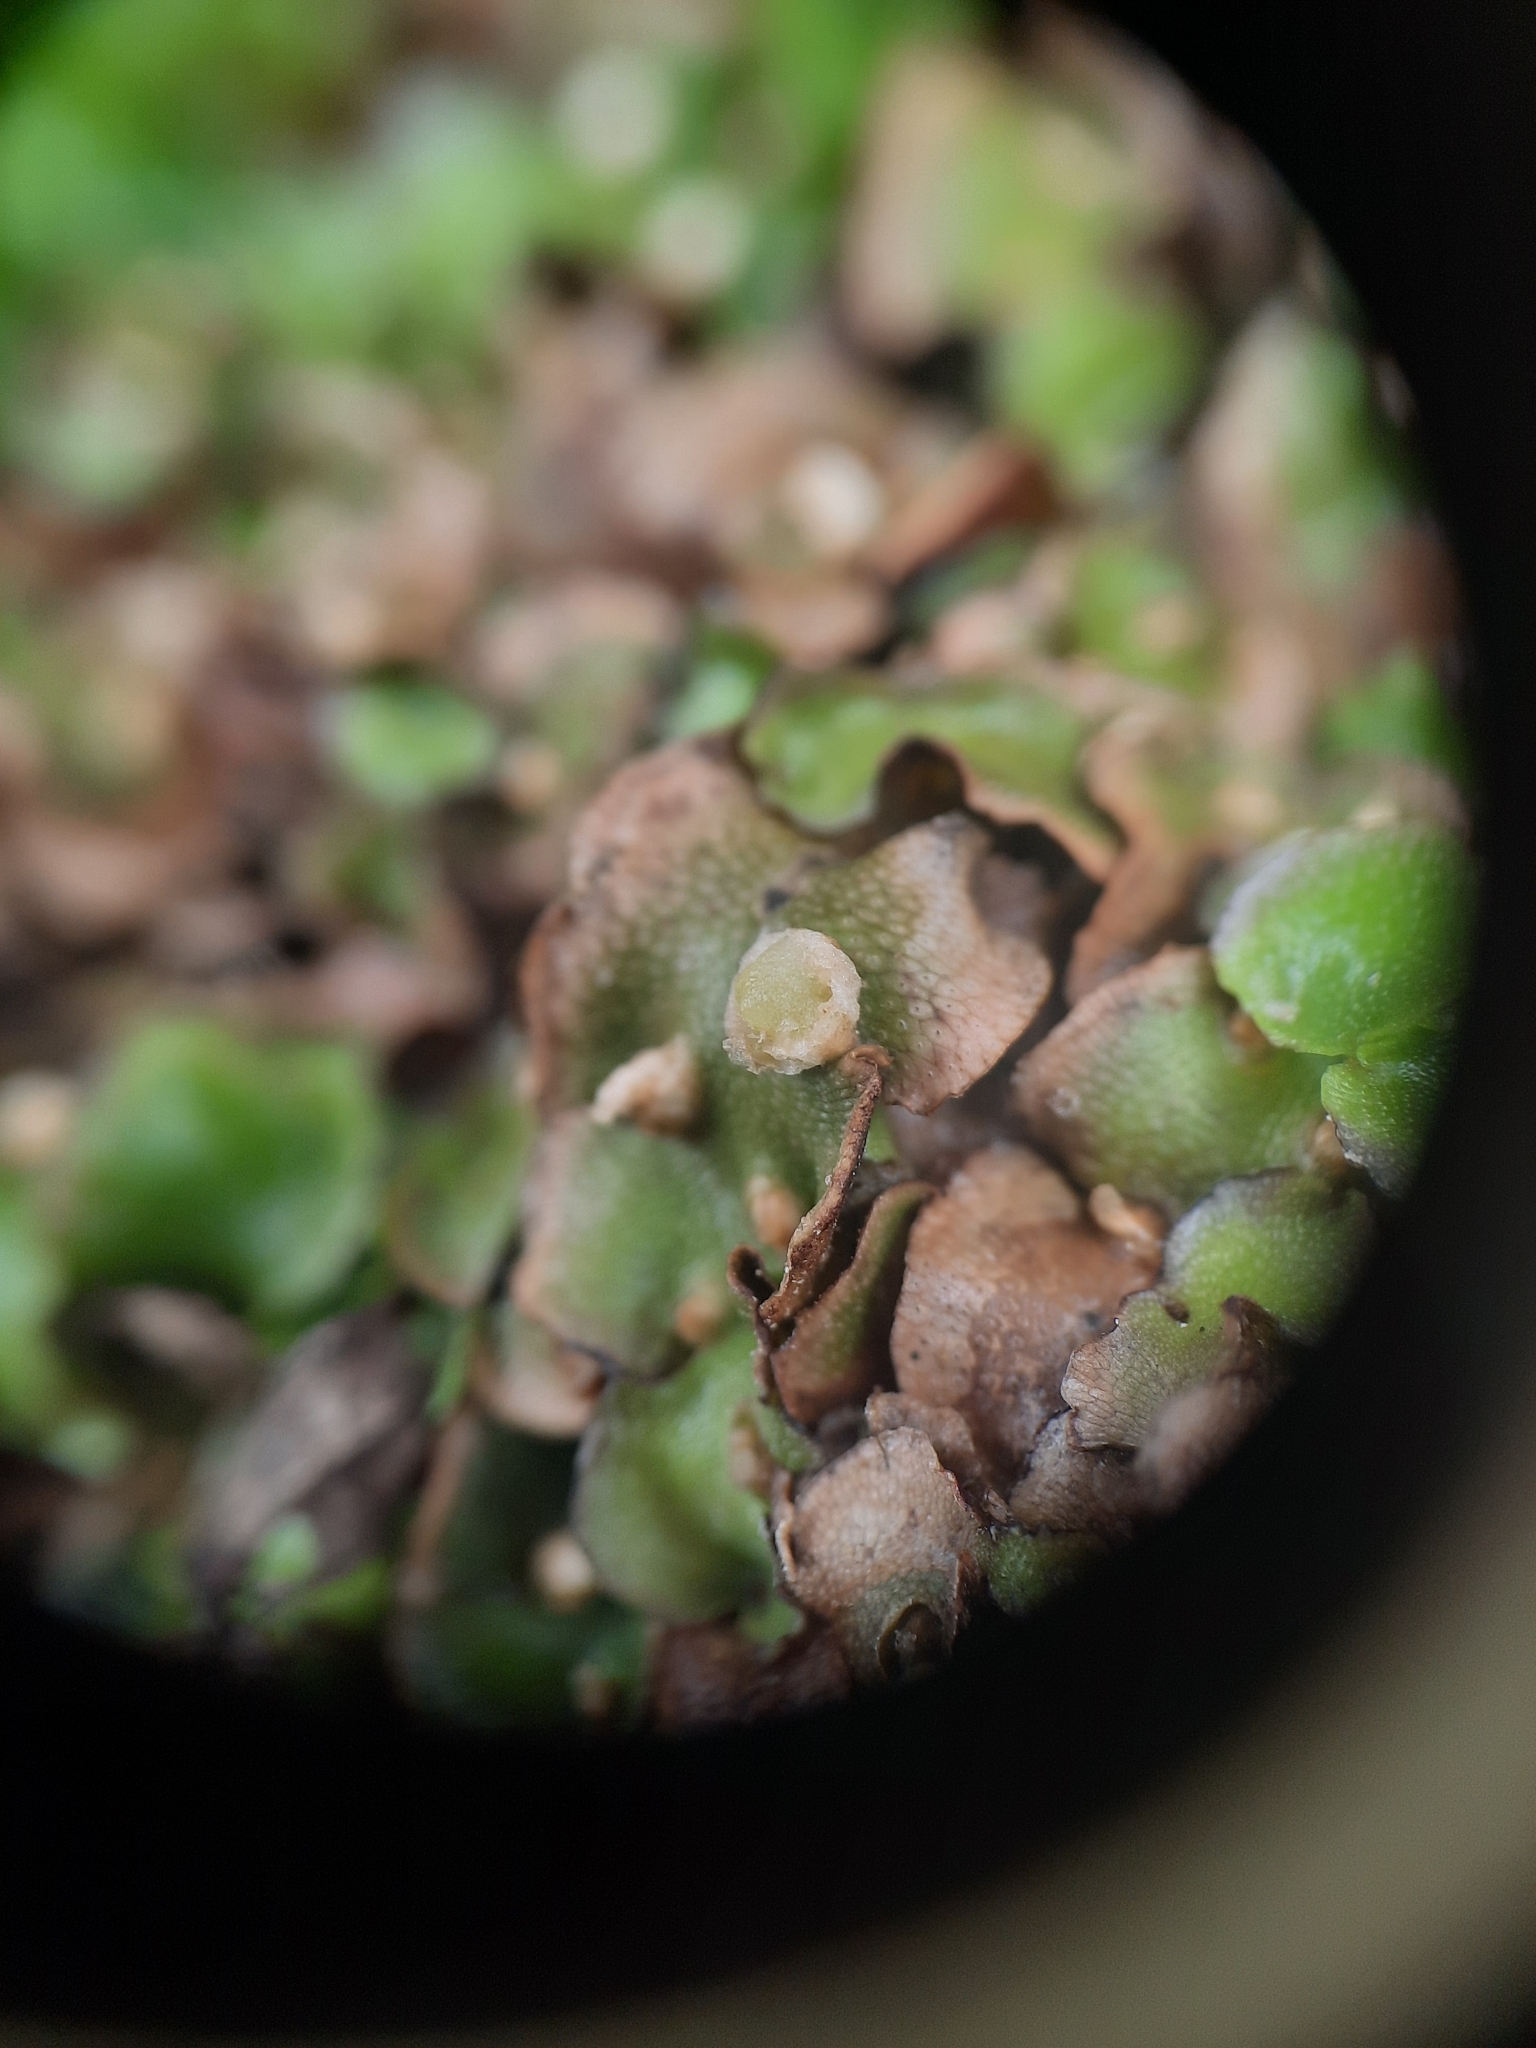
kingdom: Plantae
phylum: Marchantiophyta
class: Marchantiopsida
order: Lunulariales
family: Lunulariaceae
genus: Lunularia
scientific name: Lunularia cruciata
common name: Crescent-cup liverwort
